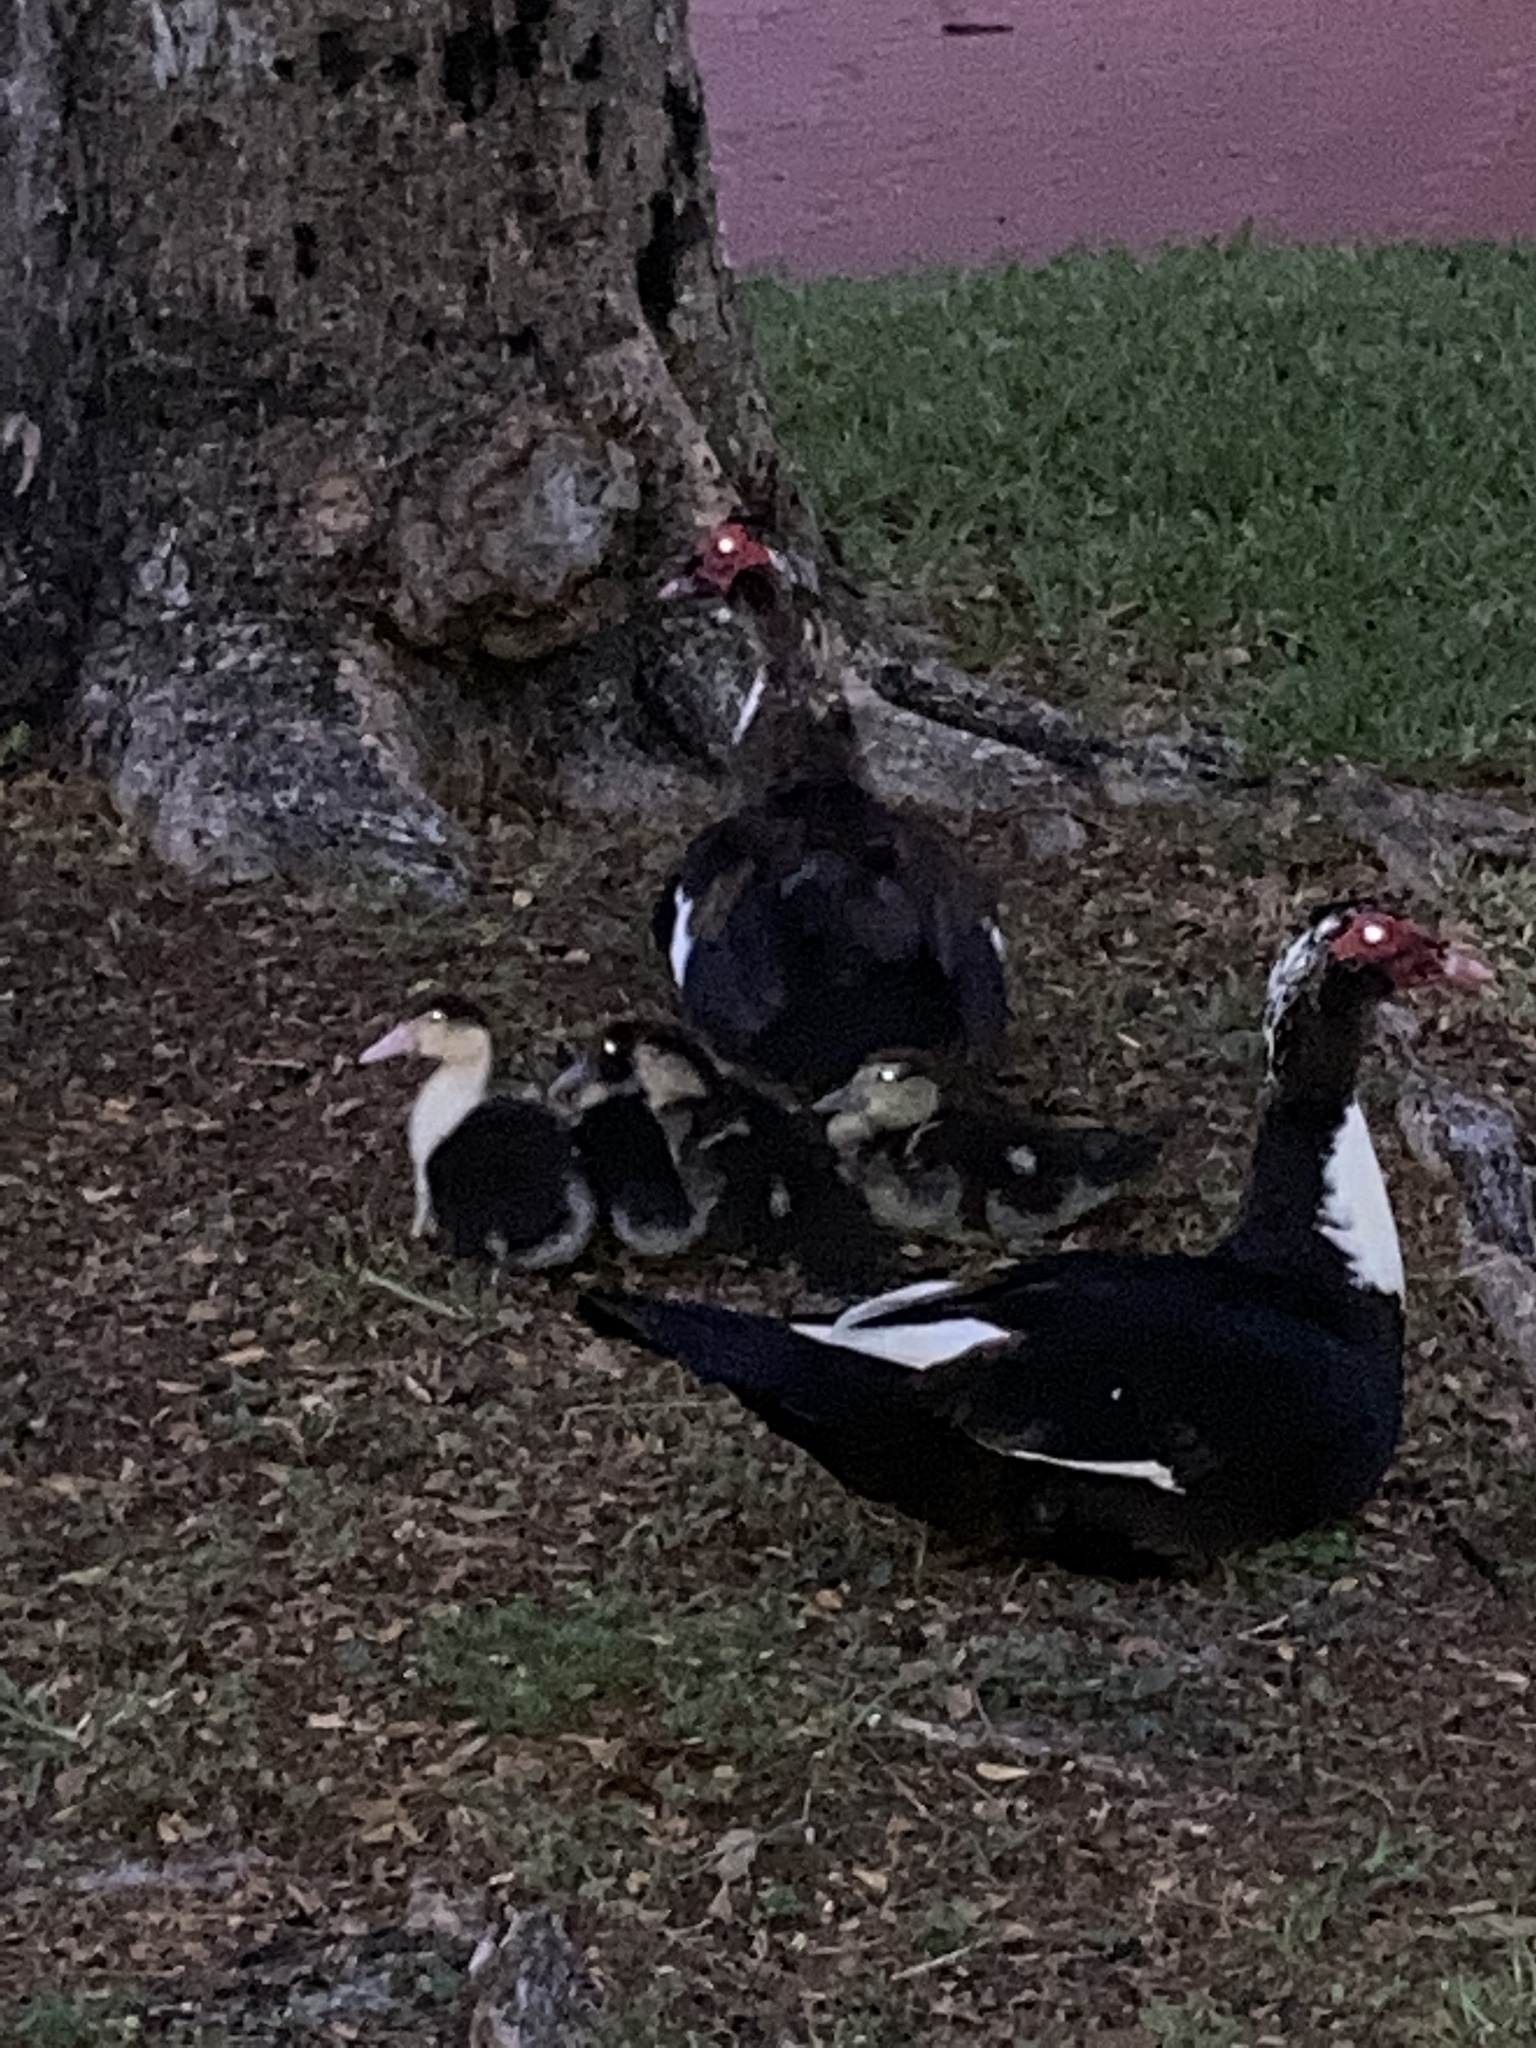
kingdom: Animalia
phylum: Chordata
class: Aves
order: Anseriformes
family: Anatidae
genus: Cairina
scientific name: Cairina moschata
